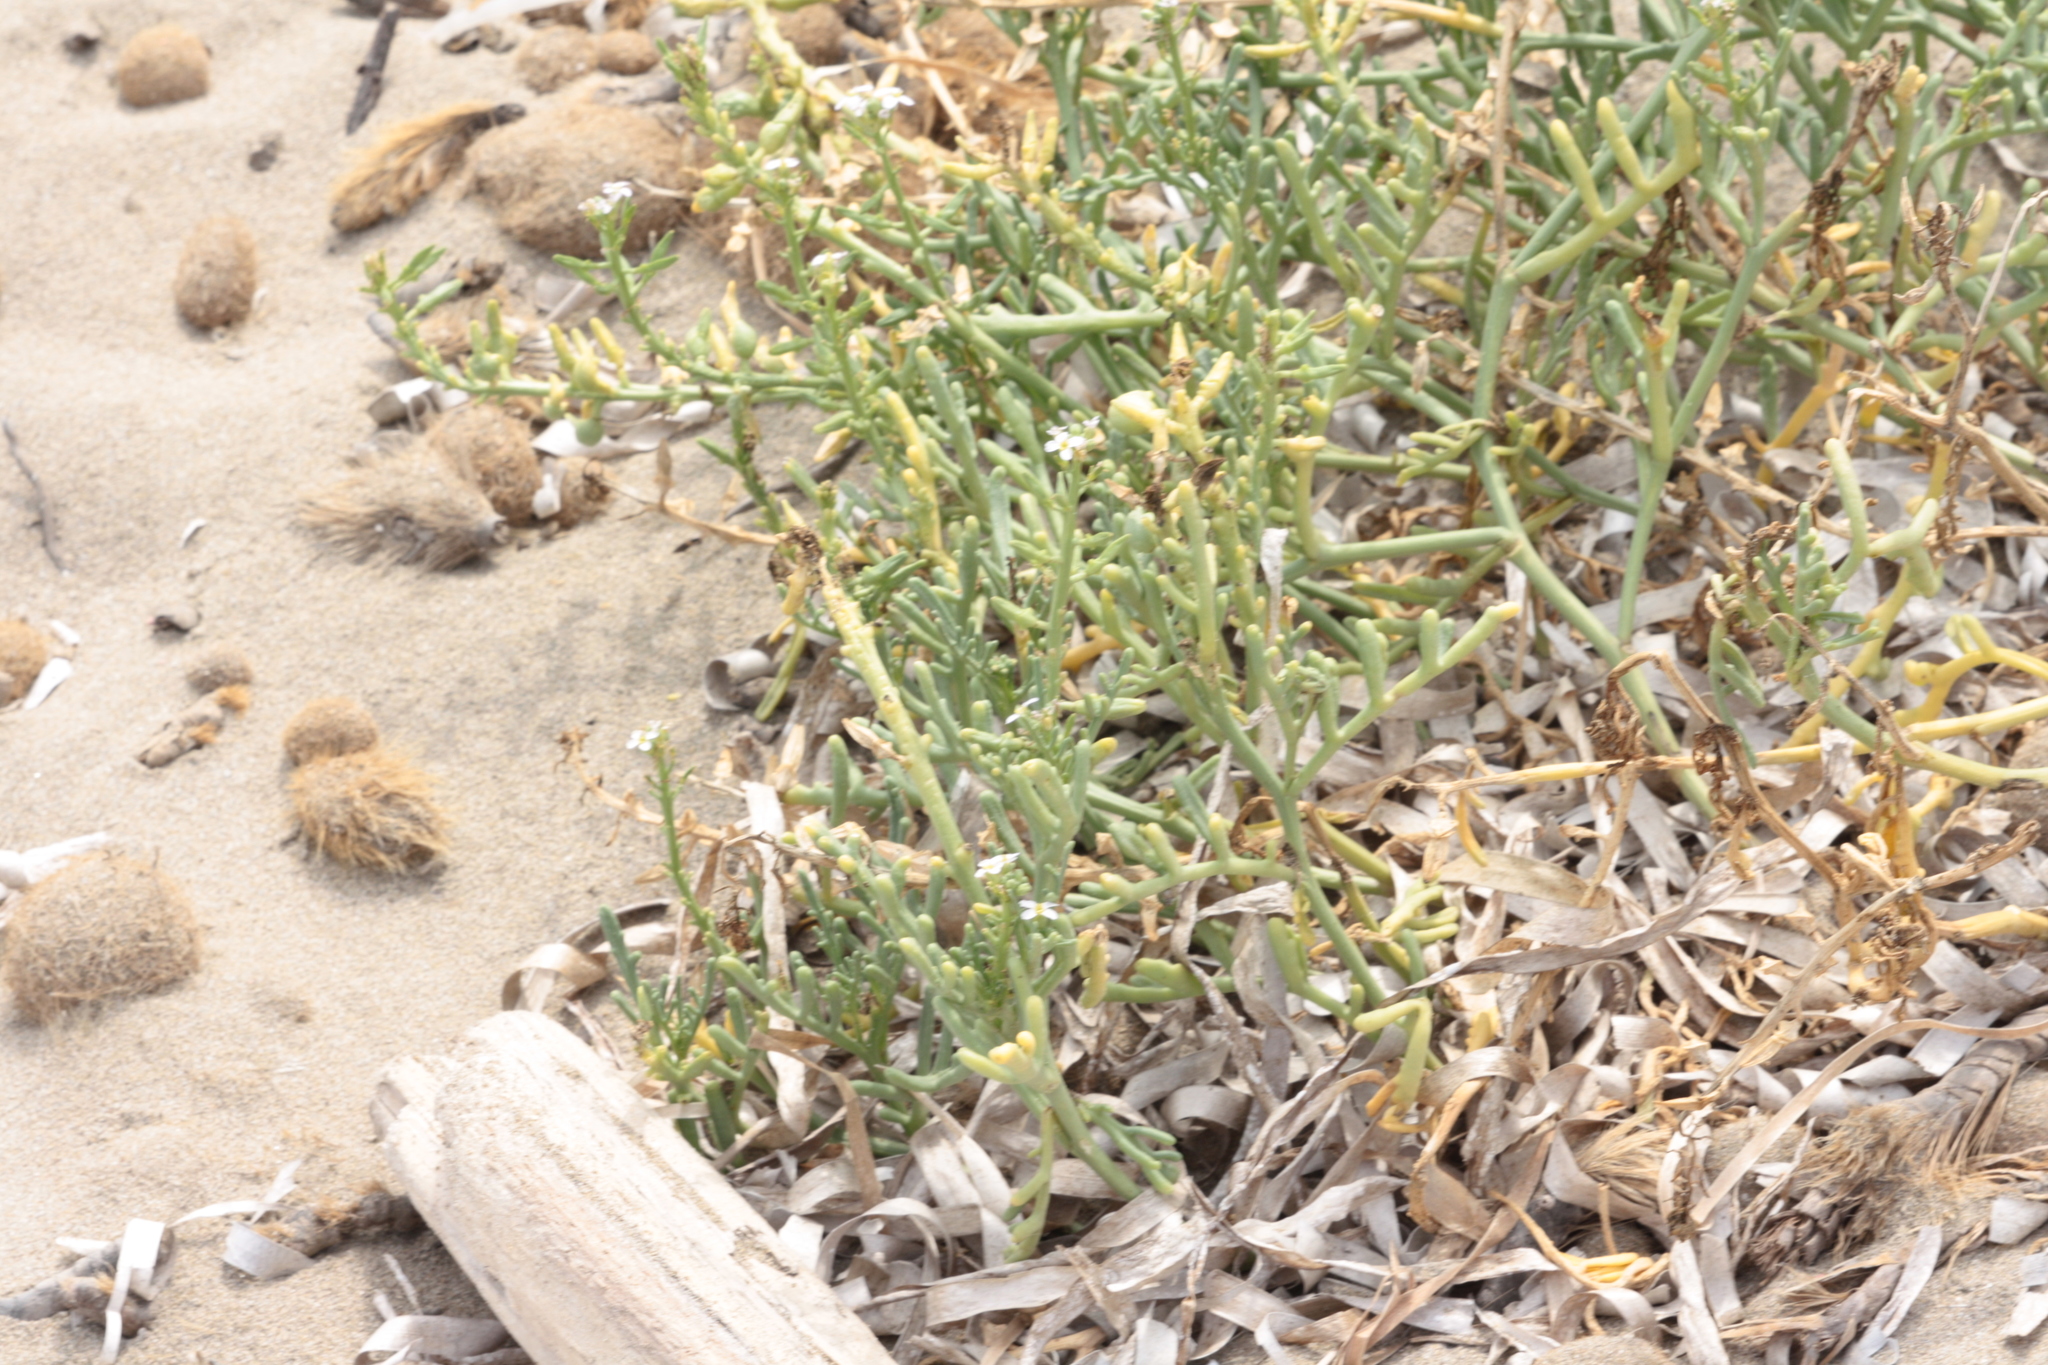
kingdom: Plantae
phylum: Tracheophyta
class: Magnoliopsida
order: Brassicales
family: Brassicaceae
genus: Cakile
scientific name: Cakile maritima
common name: Sea rocket
